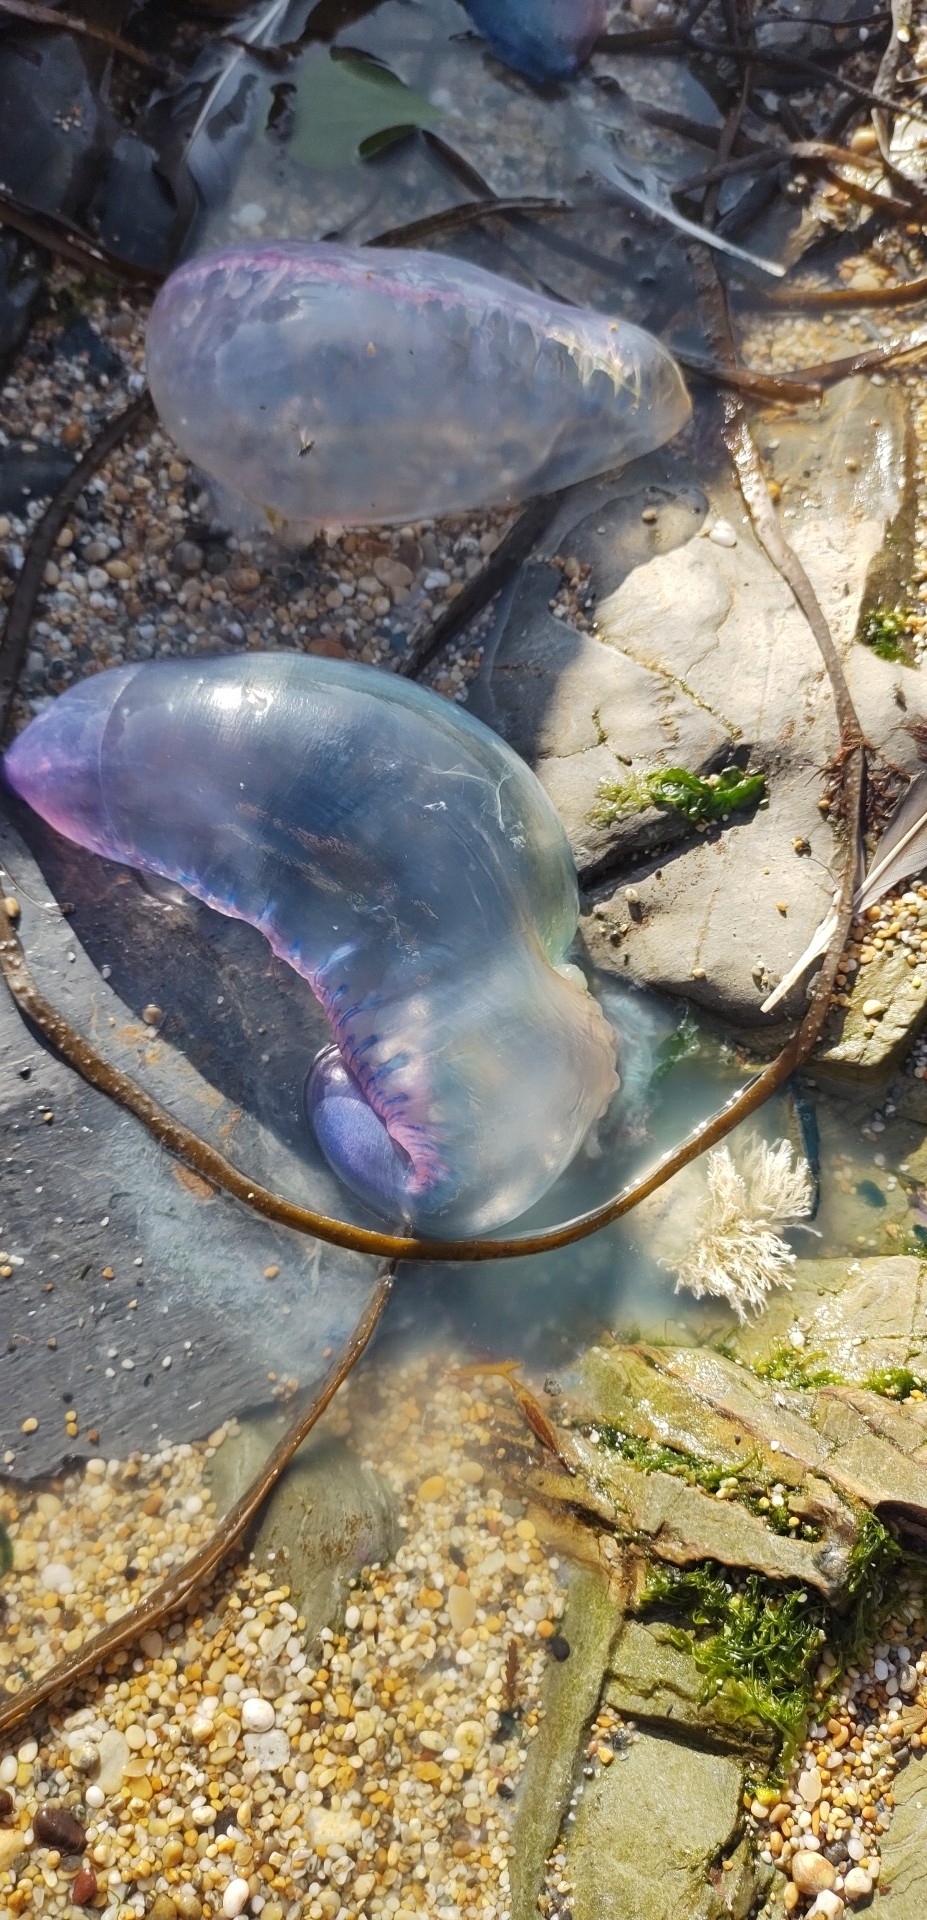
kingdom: Animalia
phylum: Cnidaria
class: Hydrozoa
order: Siphonophorae
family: Physaliidae
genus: Physalia
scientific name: Physalia physalis
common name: Portuguese man-of-war
